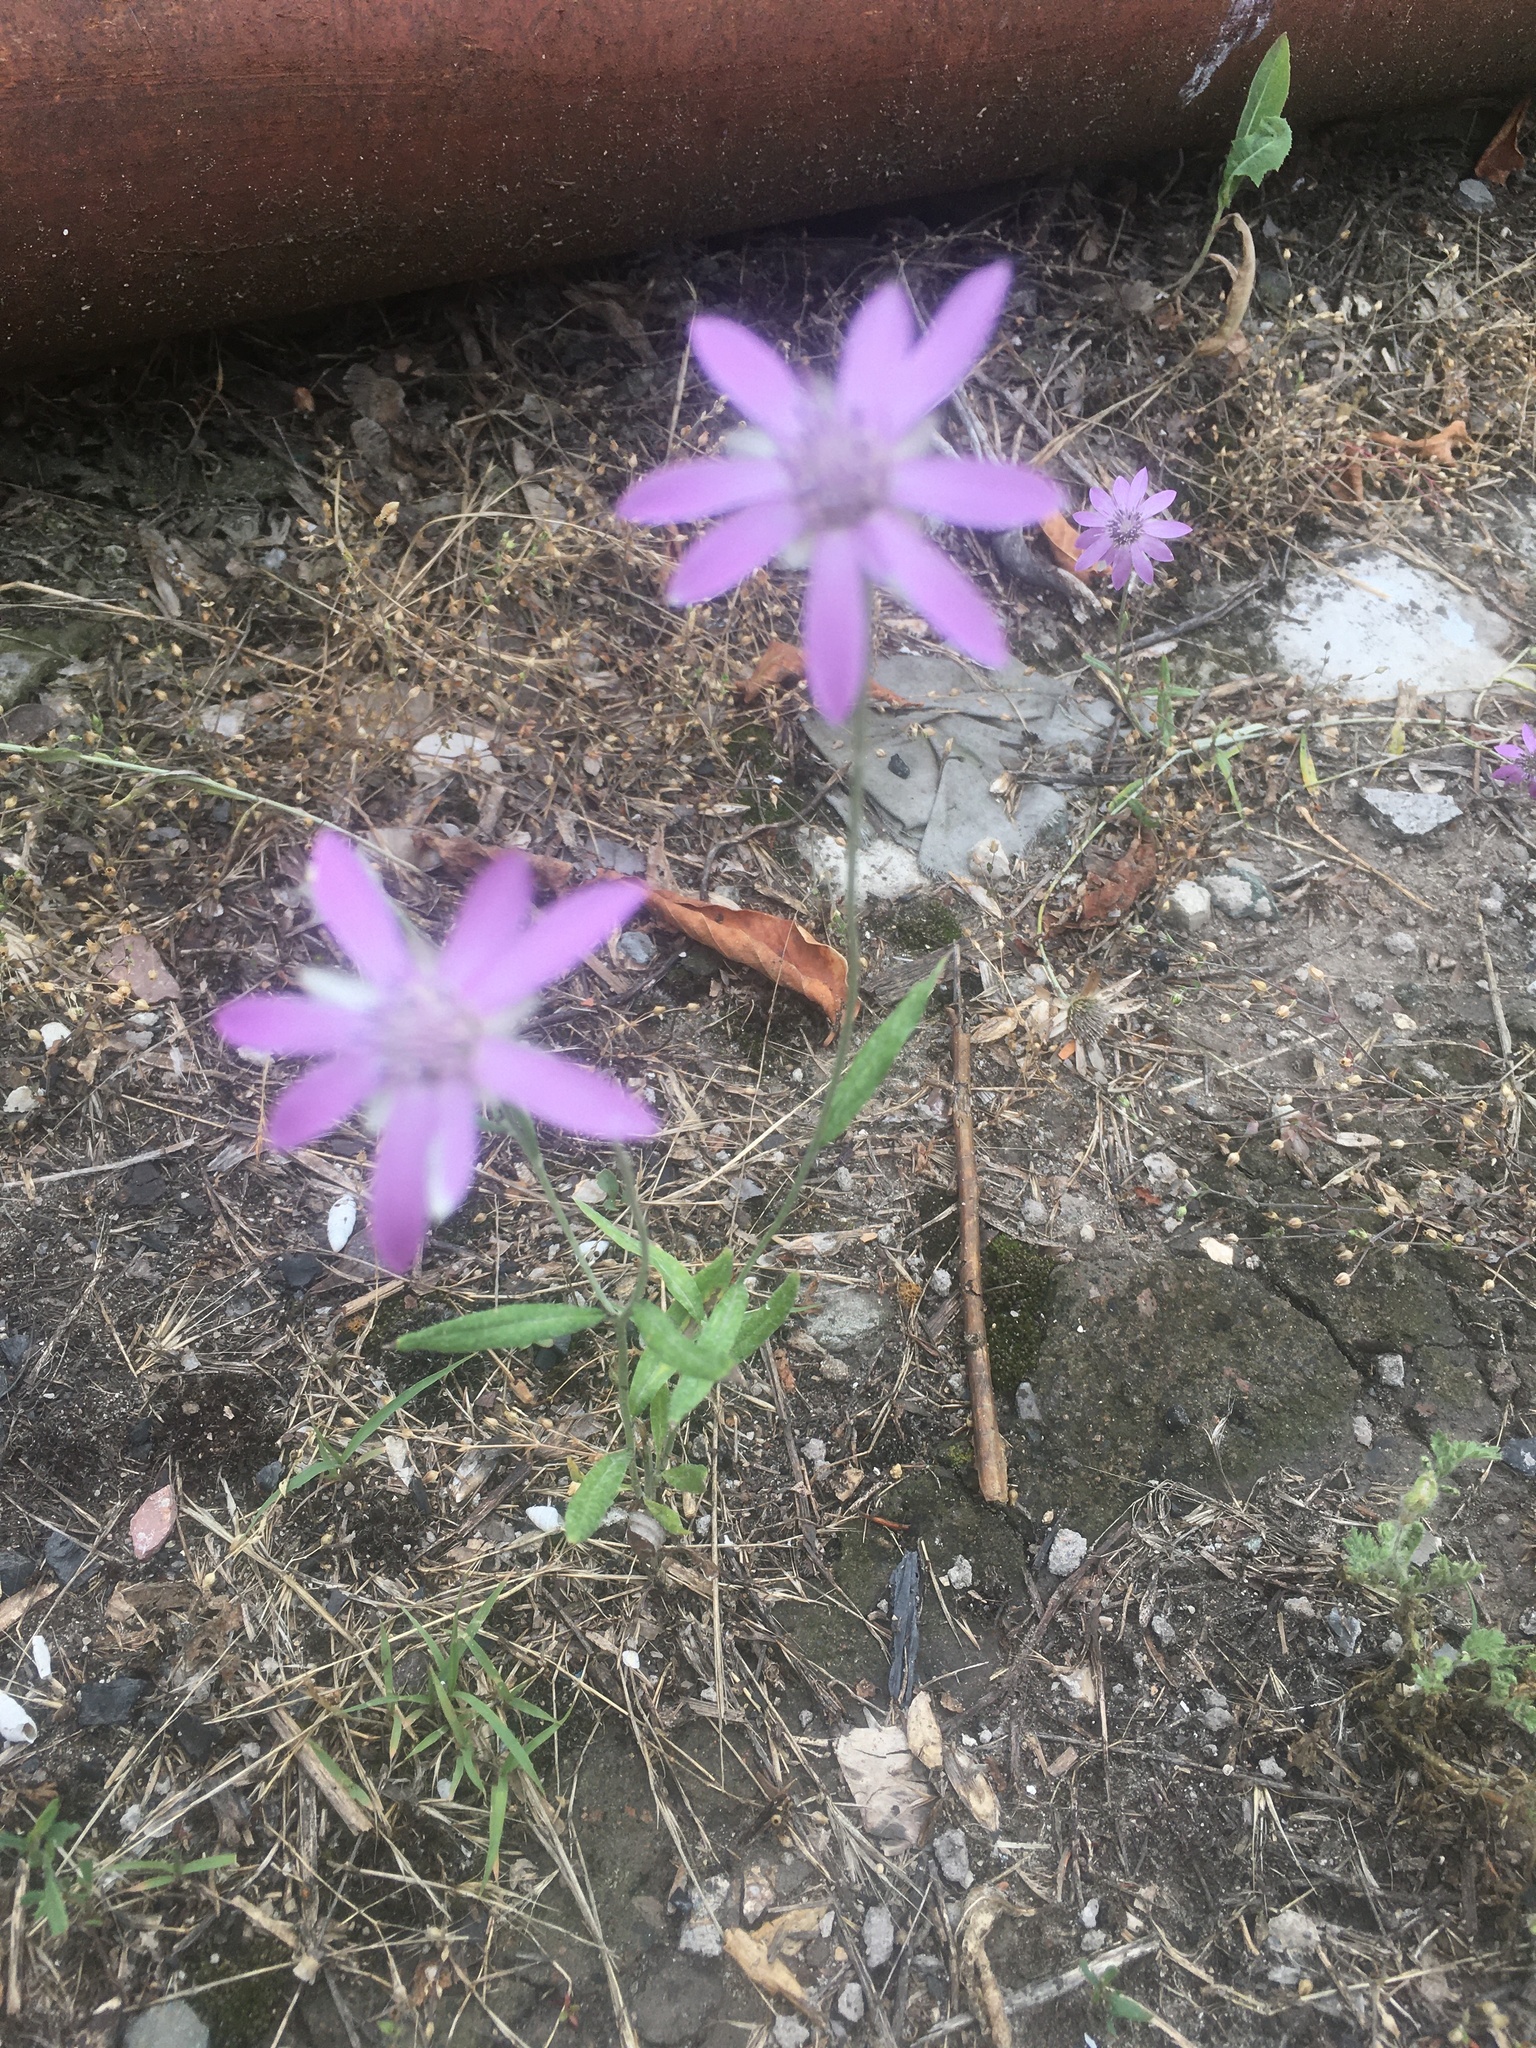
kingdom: Plantae
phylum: Tracheophyta
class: Magnoliopsida
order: Asterales
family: Asteraceae
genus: Xeranthemum
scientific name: Xeranthemum annuum
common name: Immortelle
